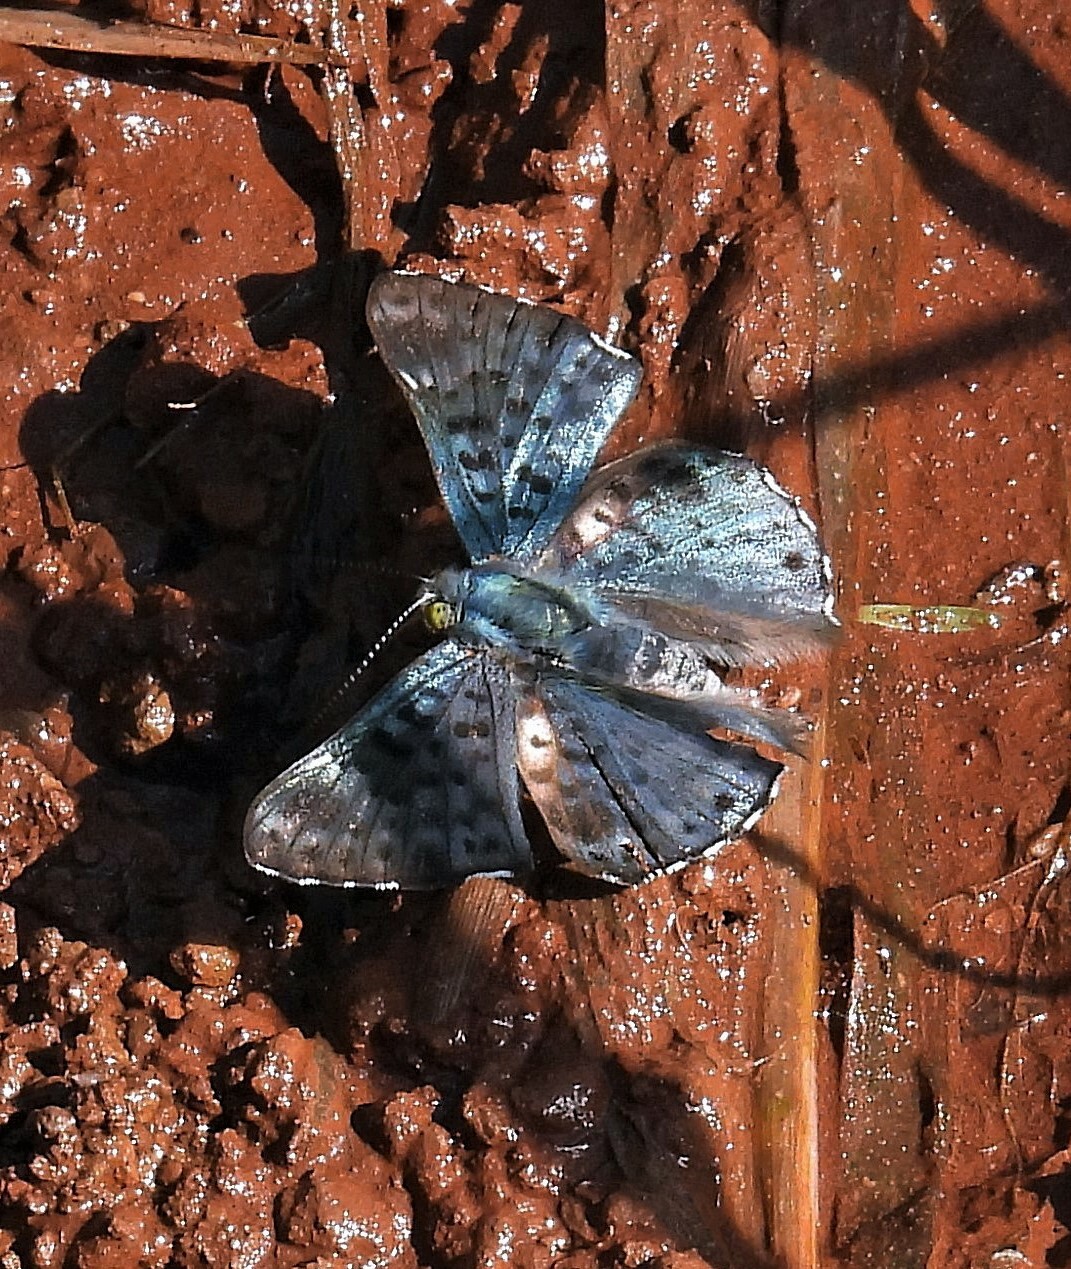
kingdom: Animalia
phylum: Arthropoda
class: Insecta
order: Lepidoptera
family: Riodinidae
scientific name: Riodinidae
